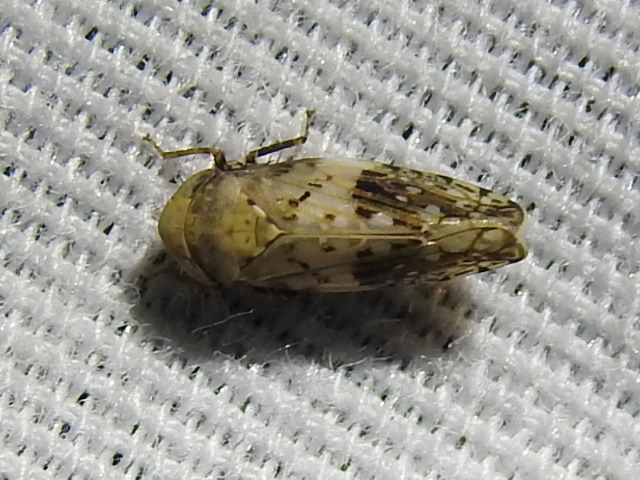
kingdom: Animalia
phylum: Arthropoda
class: Insecta
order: Hemiptera
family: Cicadellidae
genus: Menosoma
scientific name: Menosoma cinctum
